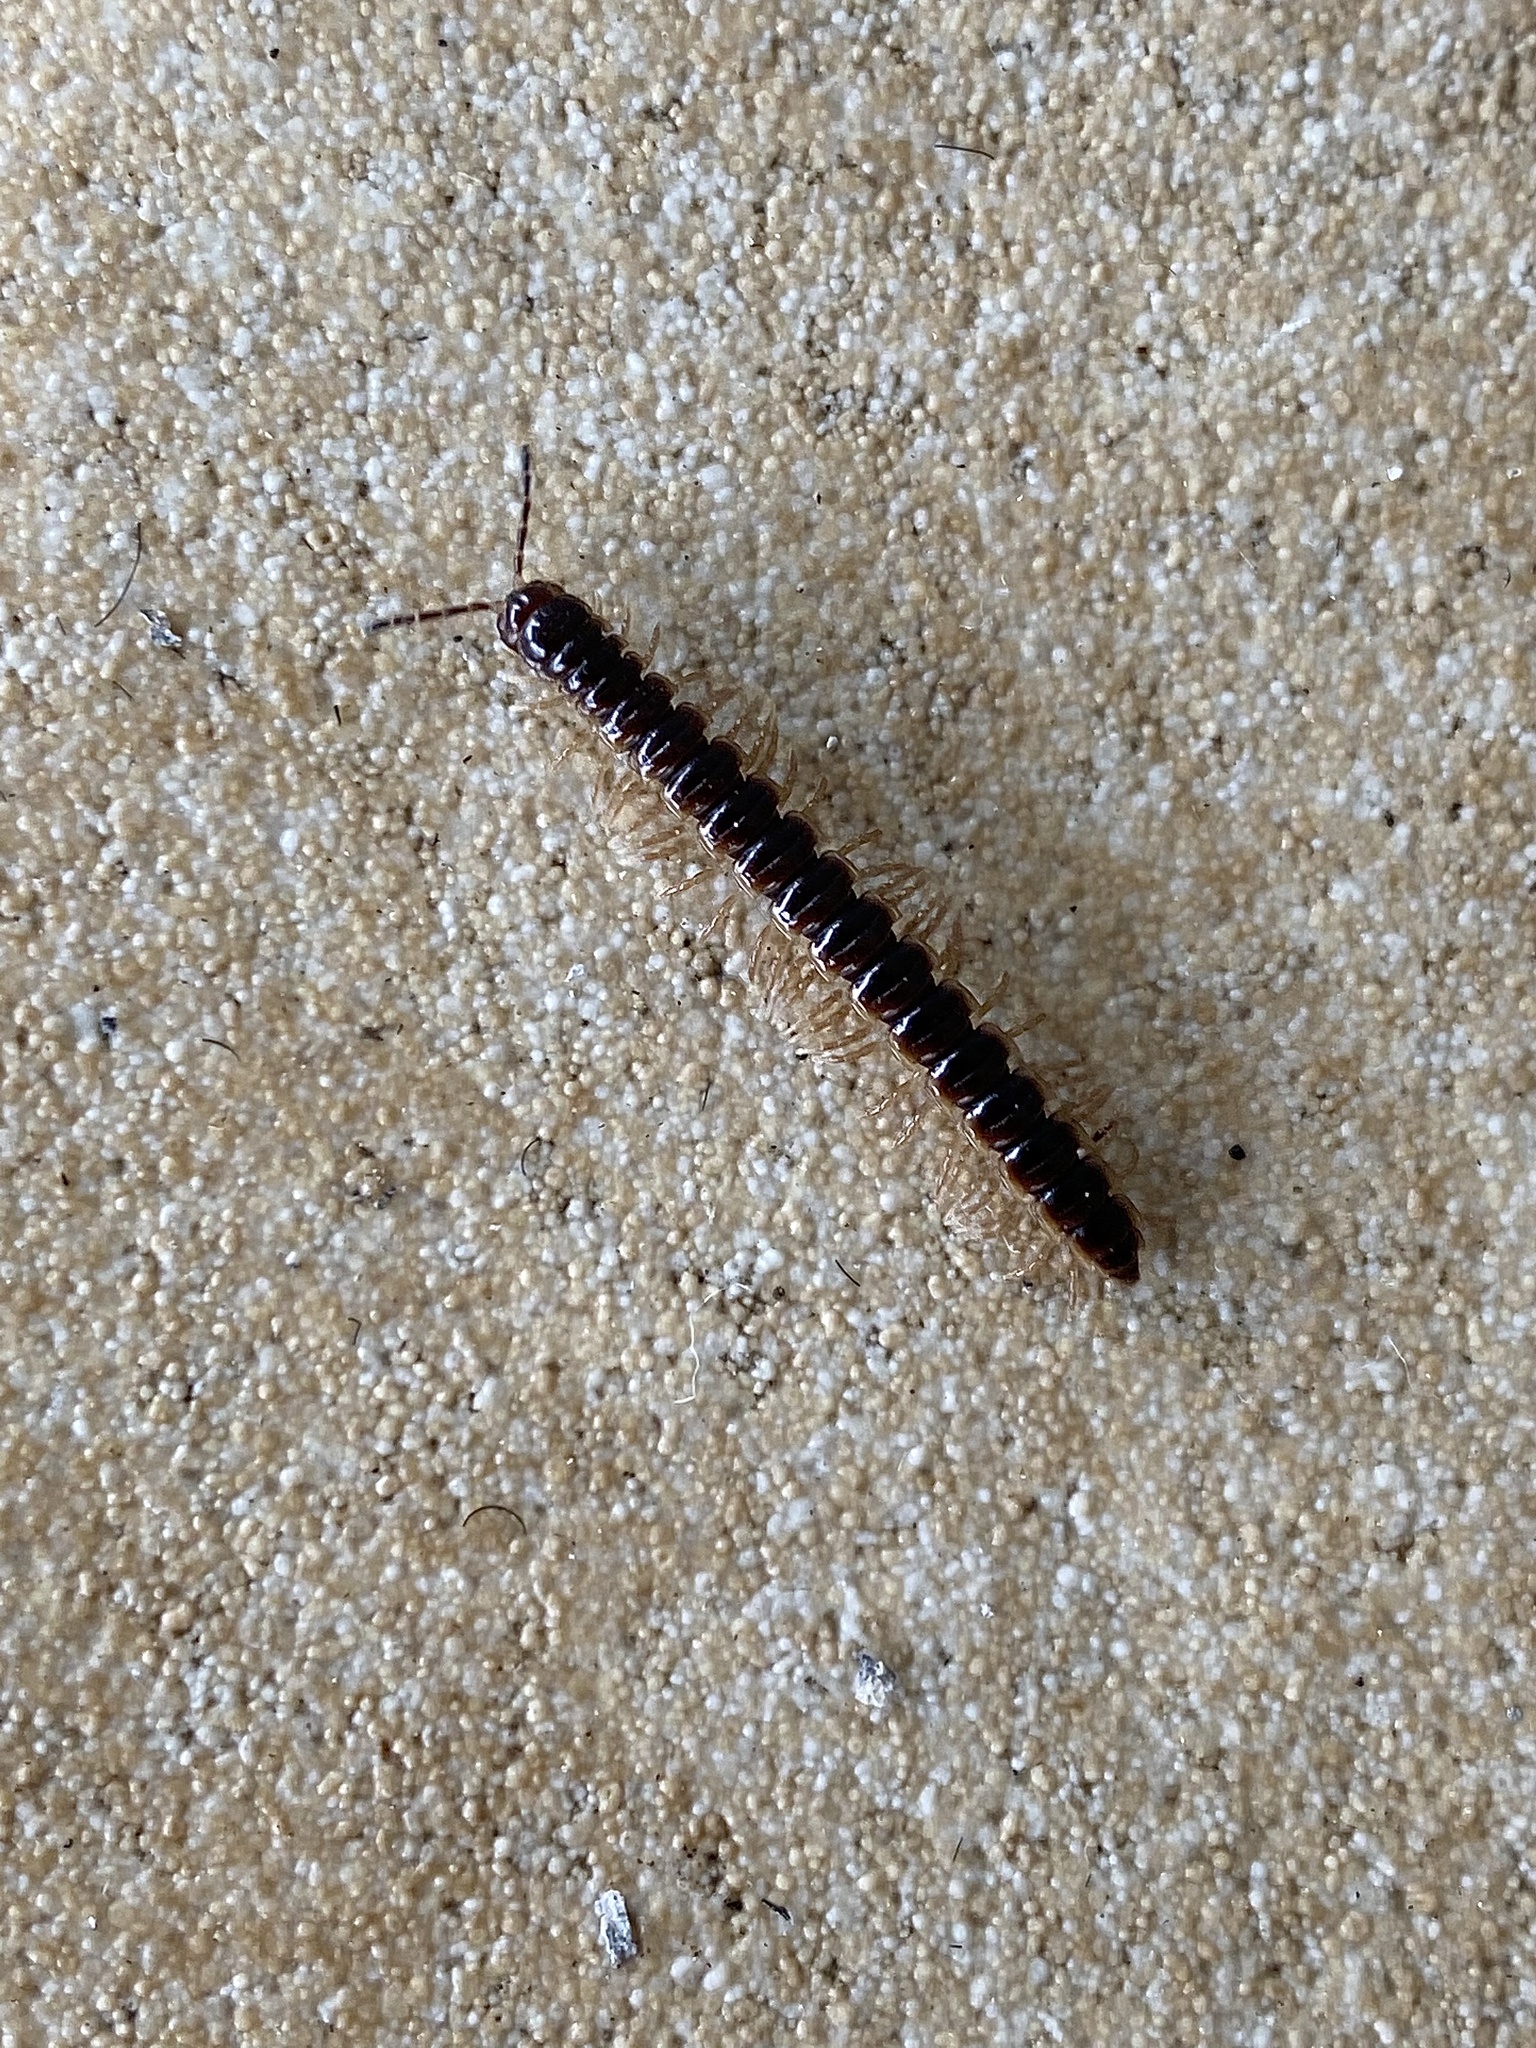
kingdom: Animalia
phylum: Arthropoda
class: Diplopoda
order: Polydesmida
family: Paradoxosomatidae
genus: Oxidus
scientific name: Oxidus gracilis
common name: Greenhouse millipede
